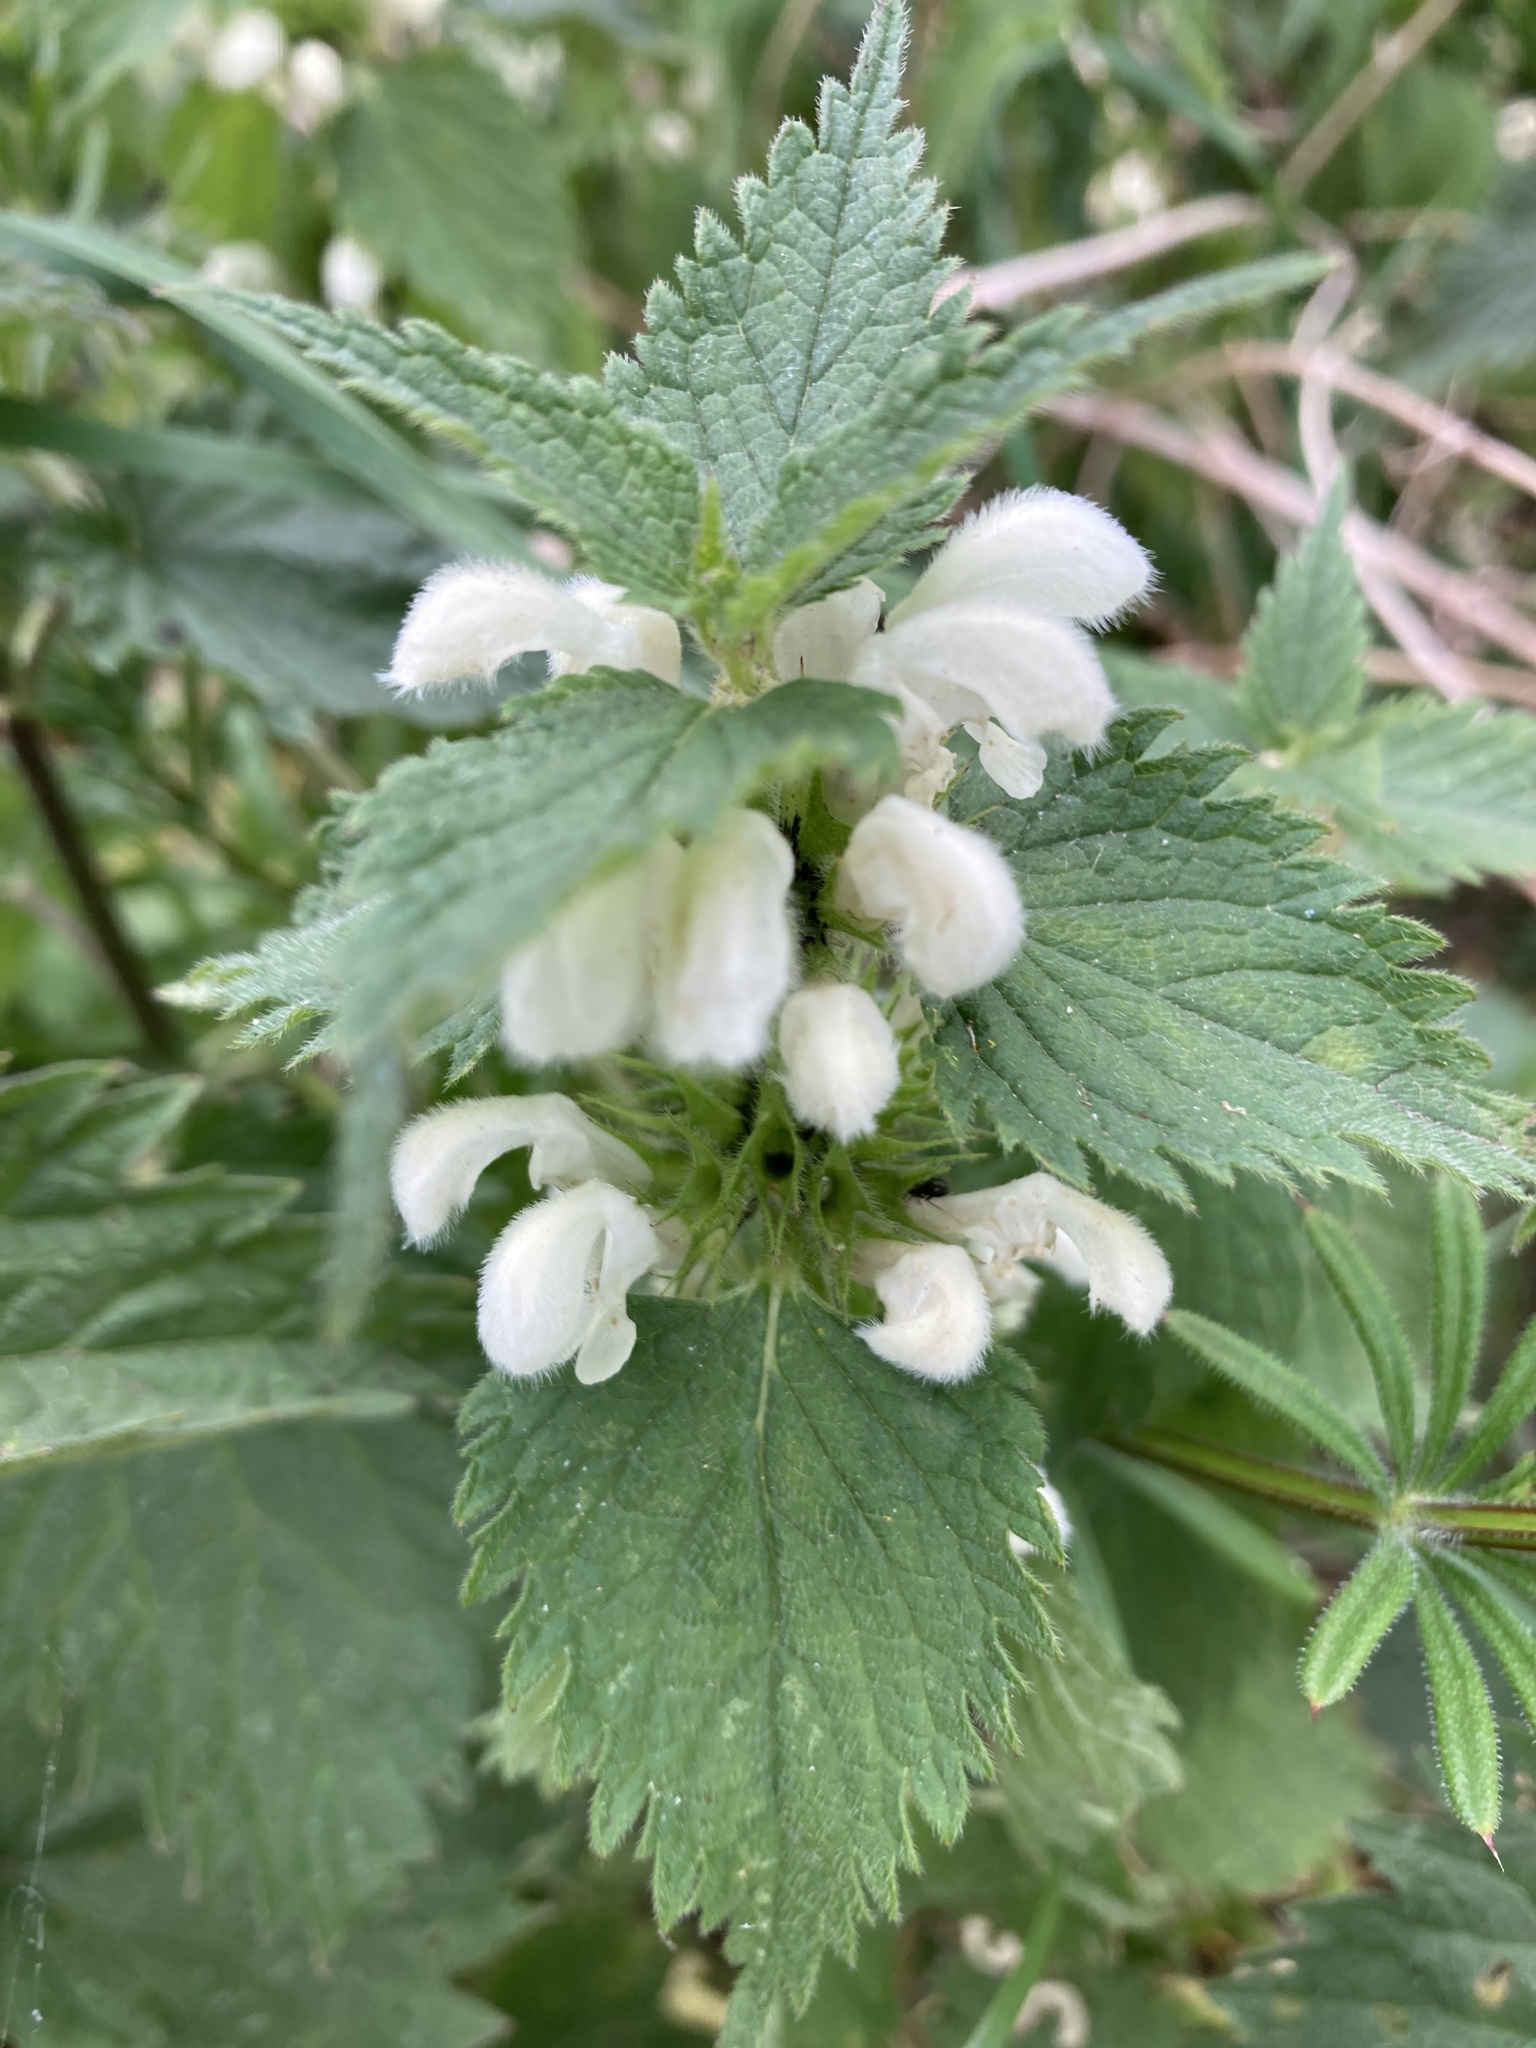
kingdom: Plantae
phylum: Tracheophyta
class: Magnoliopsida
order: Lamiales
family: Lamiaceae
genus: Lamium
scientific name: Lamium album
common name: White dead-nettle
